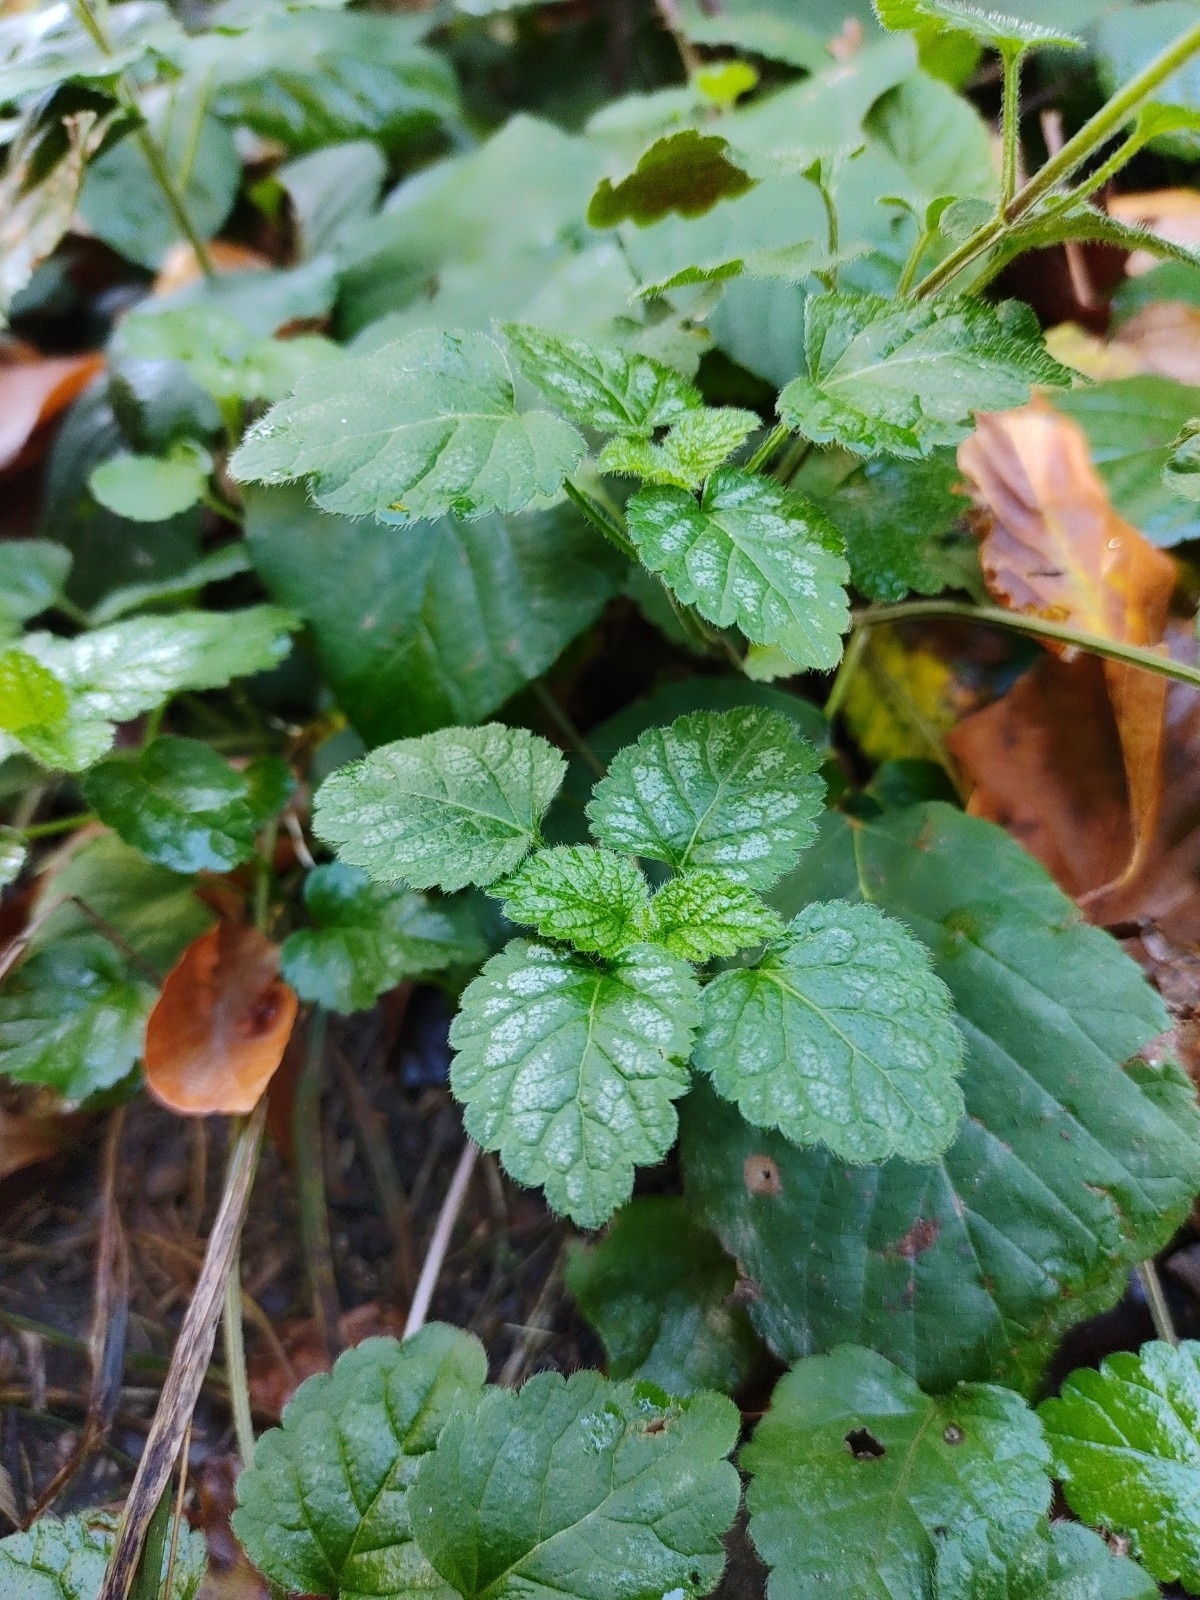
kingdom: Plantae
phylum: Tracheophyta
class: Magnoliopsida
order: Lamiales
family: Lamiaceae
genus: Lamium
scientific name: Lamium galeobdolon
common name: Yellow archangel
